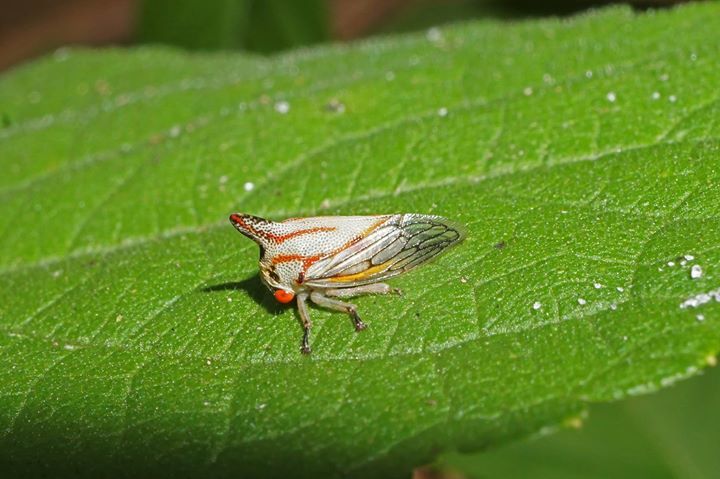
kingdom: Animalia
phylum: Arthropoda
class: Insecta
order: Hemiptera
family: Membracidae
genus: Platycotis
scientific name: Platycotis vittatus
